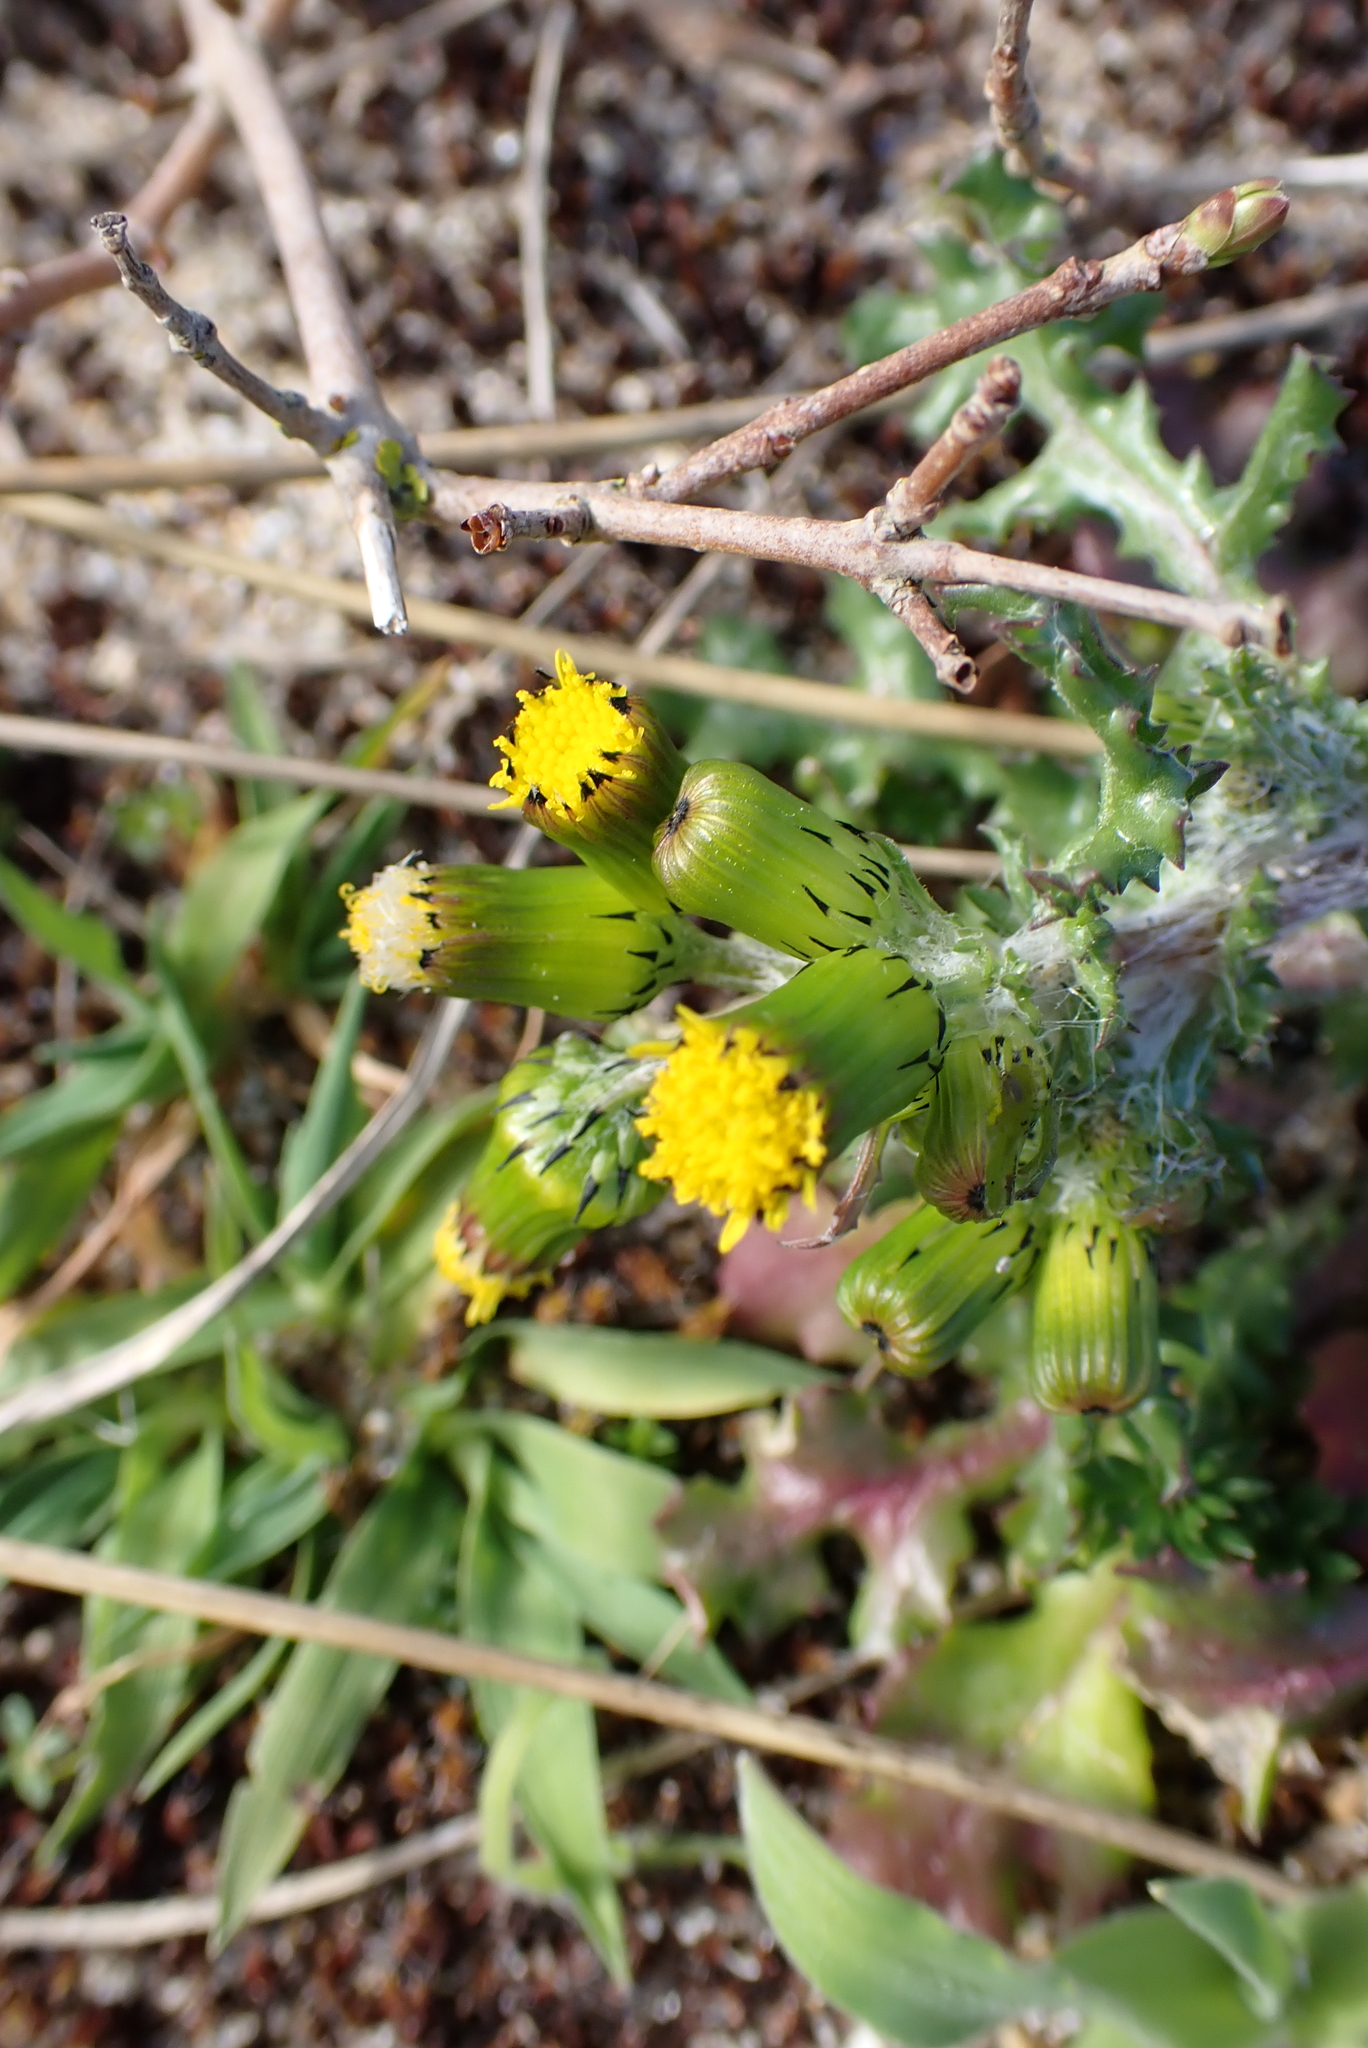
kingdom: Plantae
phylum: Tracheophyta
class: Magnoliopsida
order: Asterales
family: Asteraceae
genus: Senecio
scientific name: Senecio vulgaris
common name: Old-man-in-the-spring
